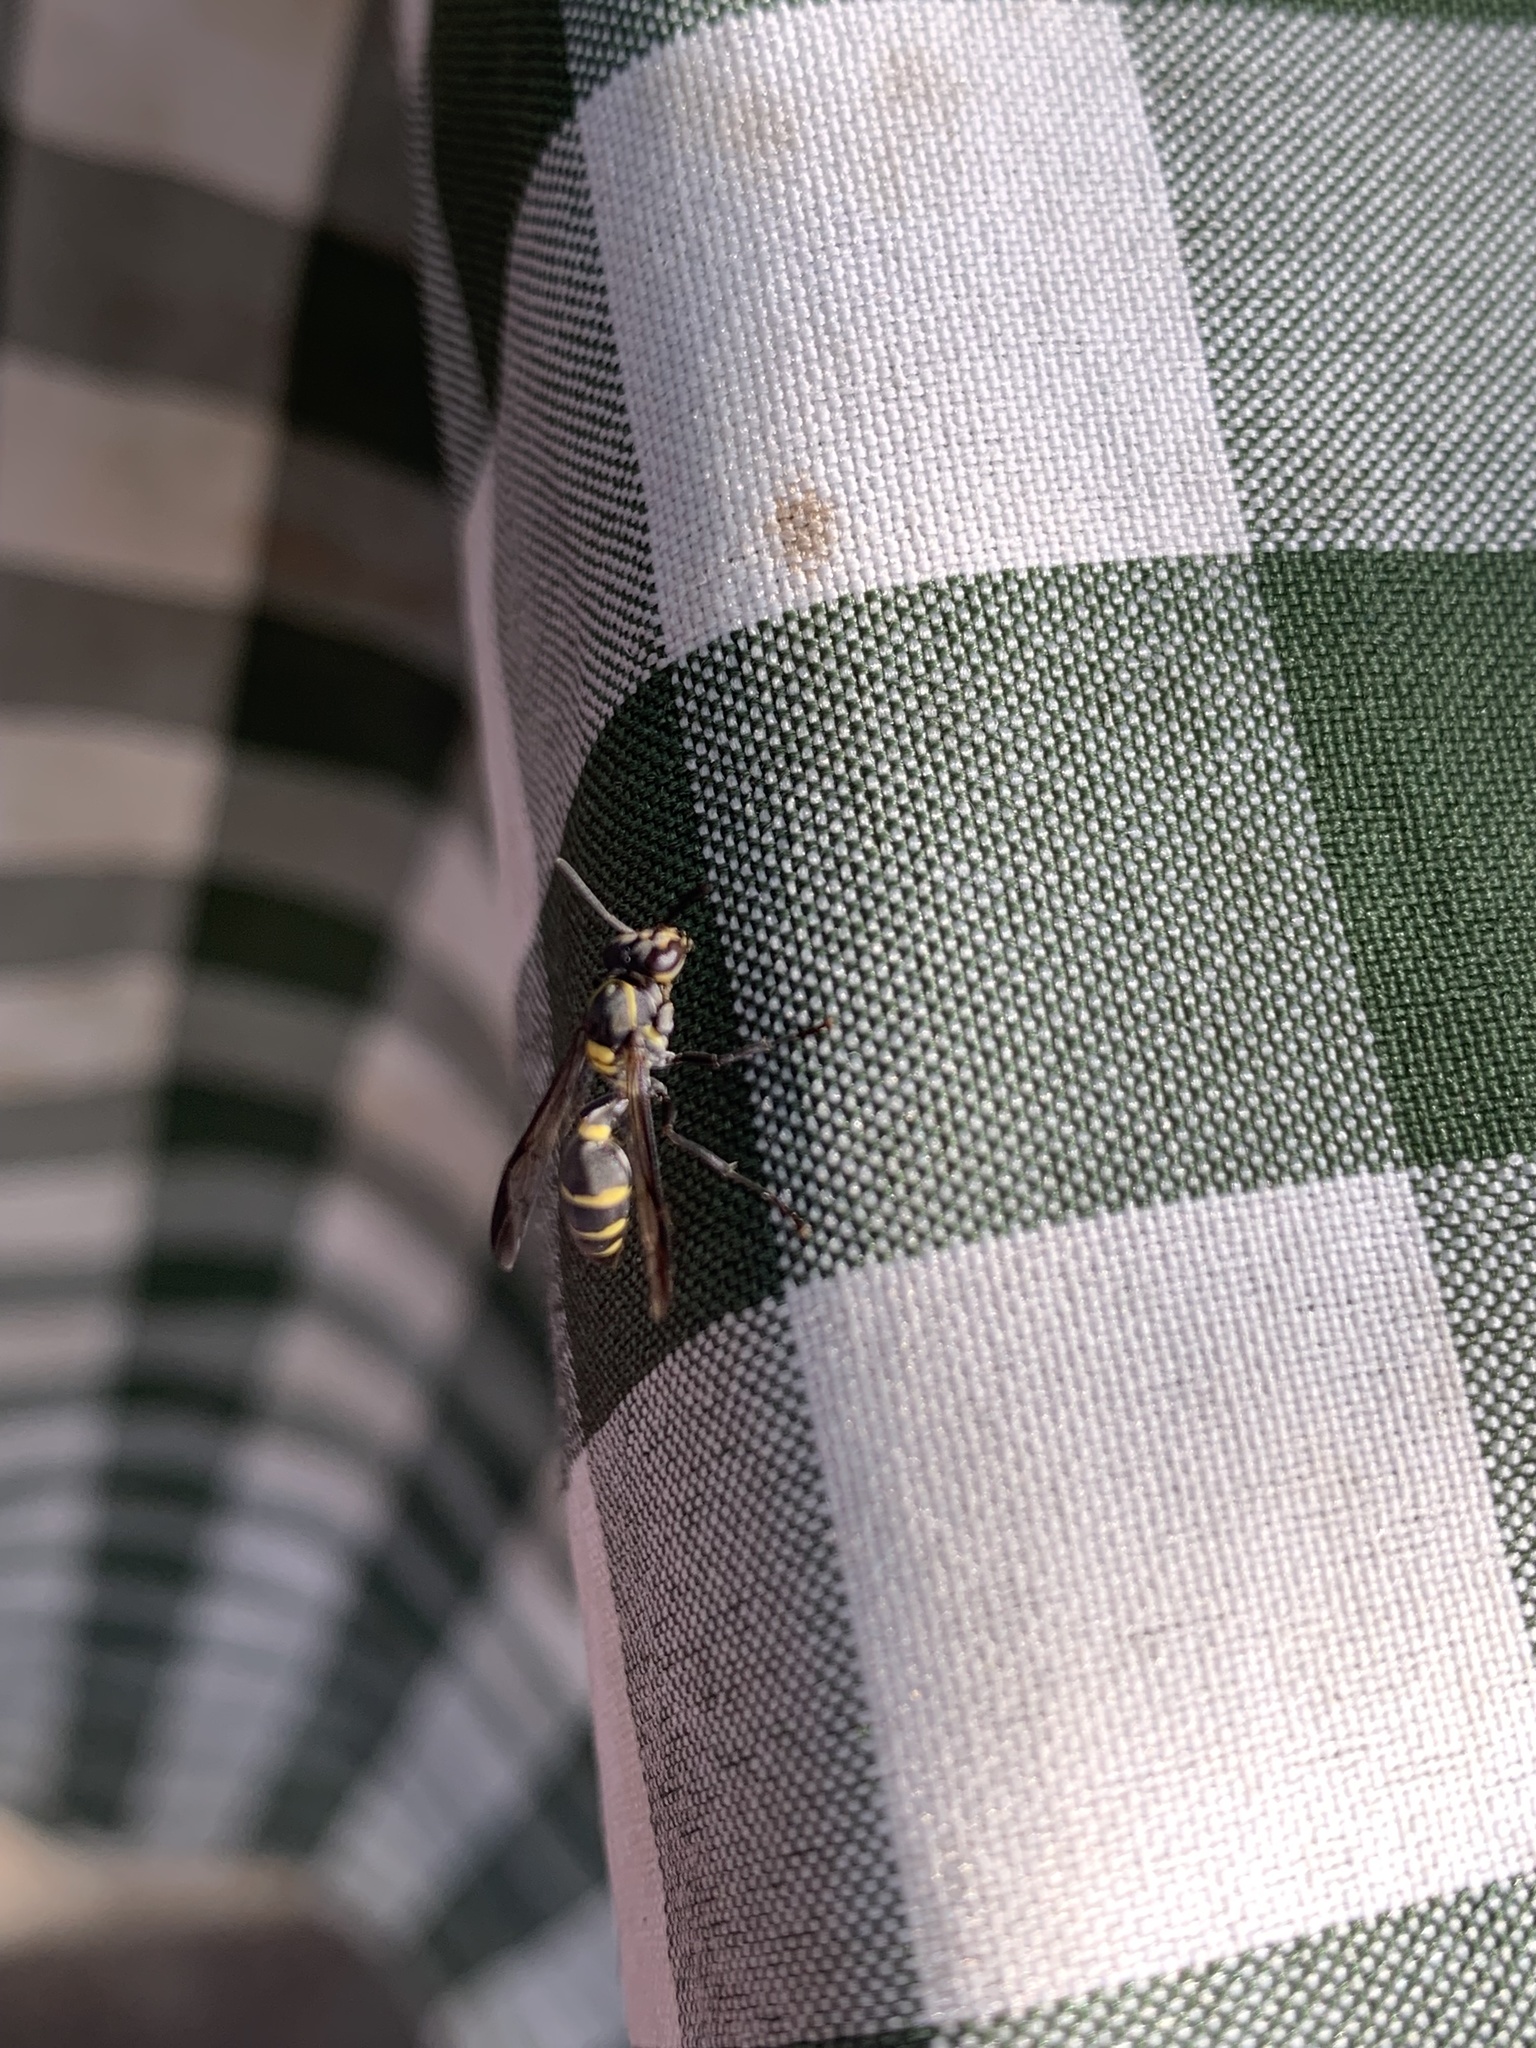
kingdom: Animalia
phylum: Arthropoda
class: Insecta
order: Hymenoptera
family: Eumenidae
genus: Polybia
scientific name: Polybia occidentalis
